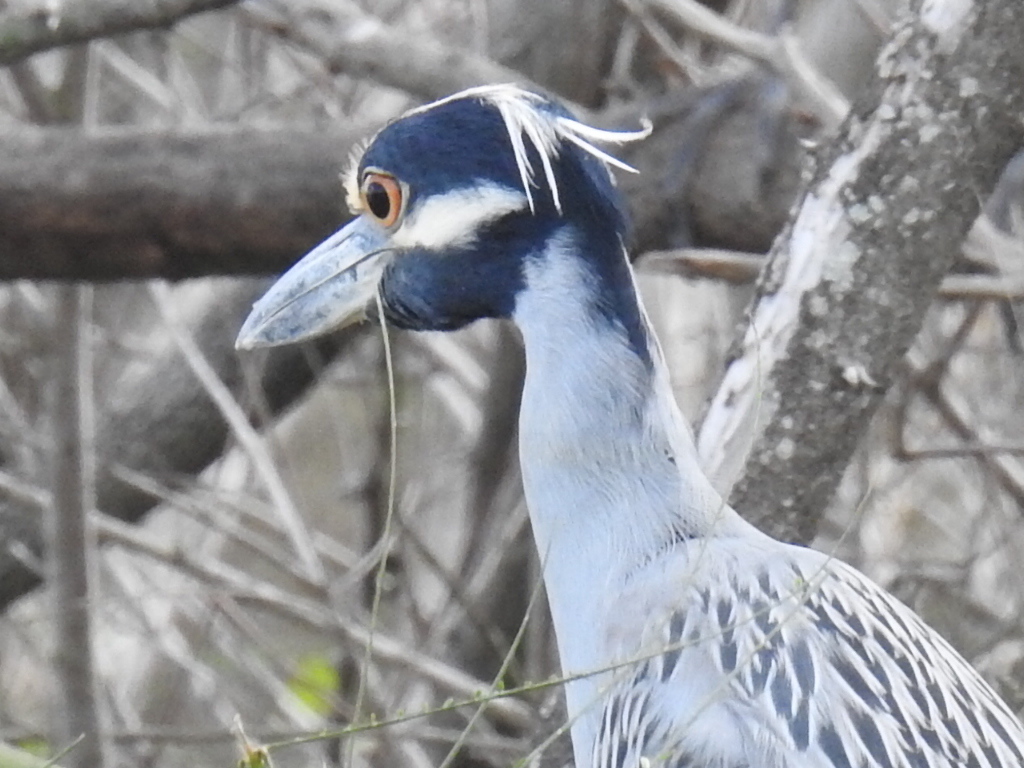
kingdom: Animalia
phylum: Chordata
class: Aves
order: Pelecaniformes
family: Ardeidae
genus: Nyctanassa
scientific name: Nyctanassa violacea
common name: Yellow-crowned night heron
